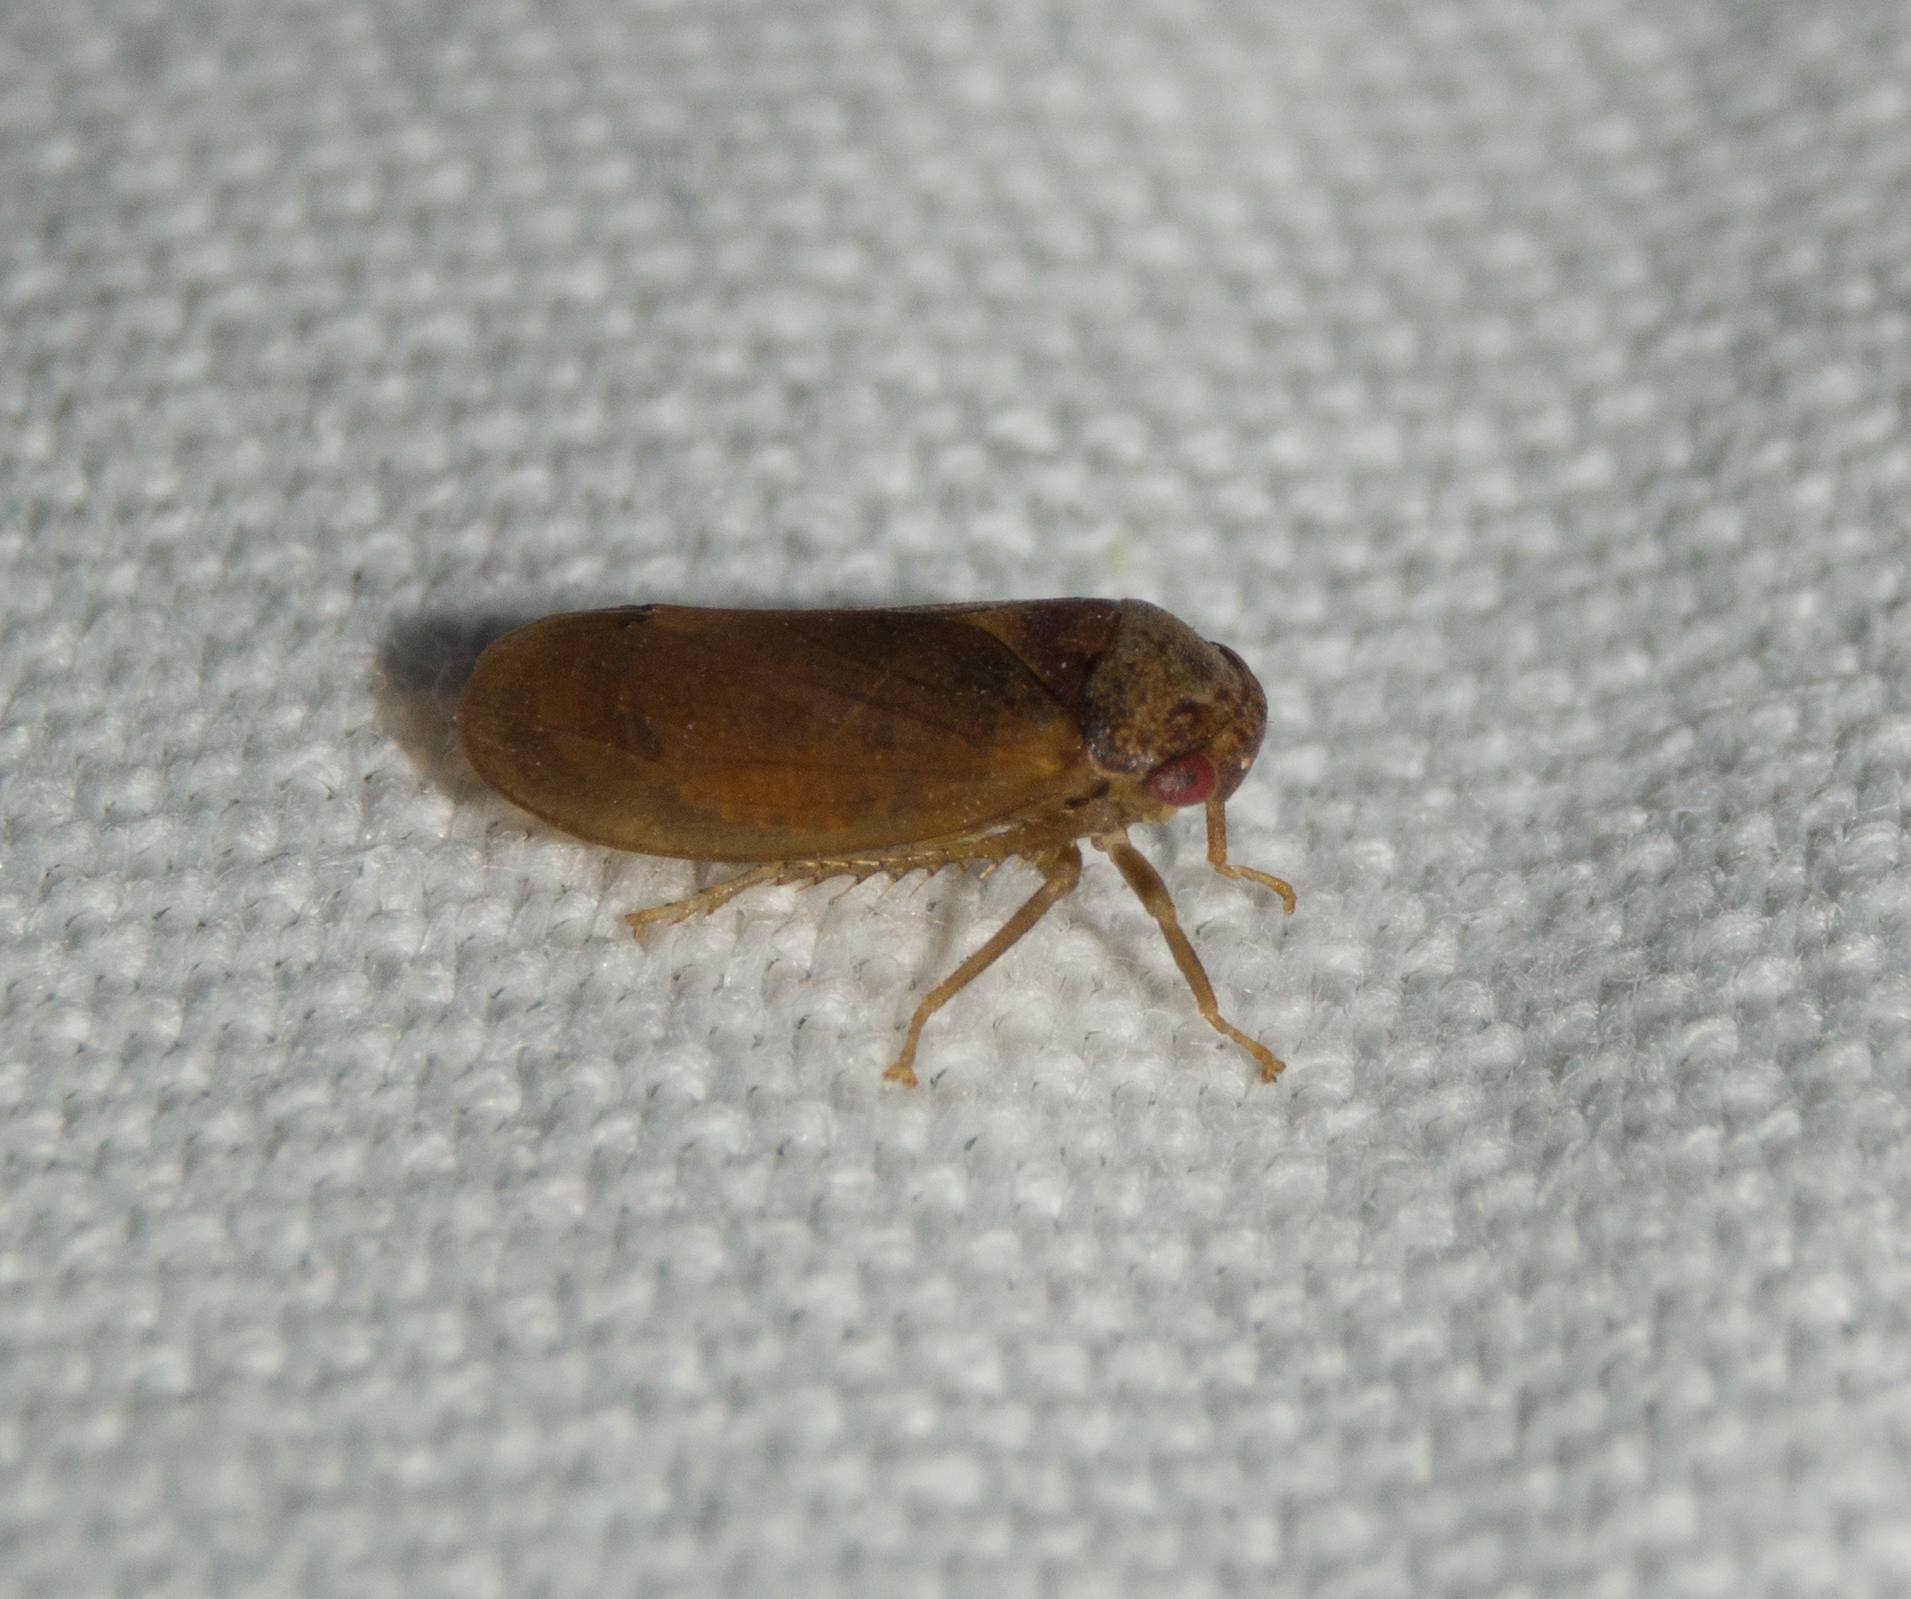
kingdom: Animalia
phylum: Arthropoda
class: Insecta
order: Hemiptera
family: Cicadellidae
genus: Iassus
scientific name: Iassus lanio
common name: Leafhopper
